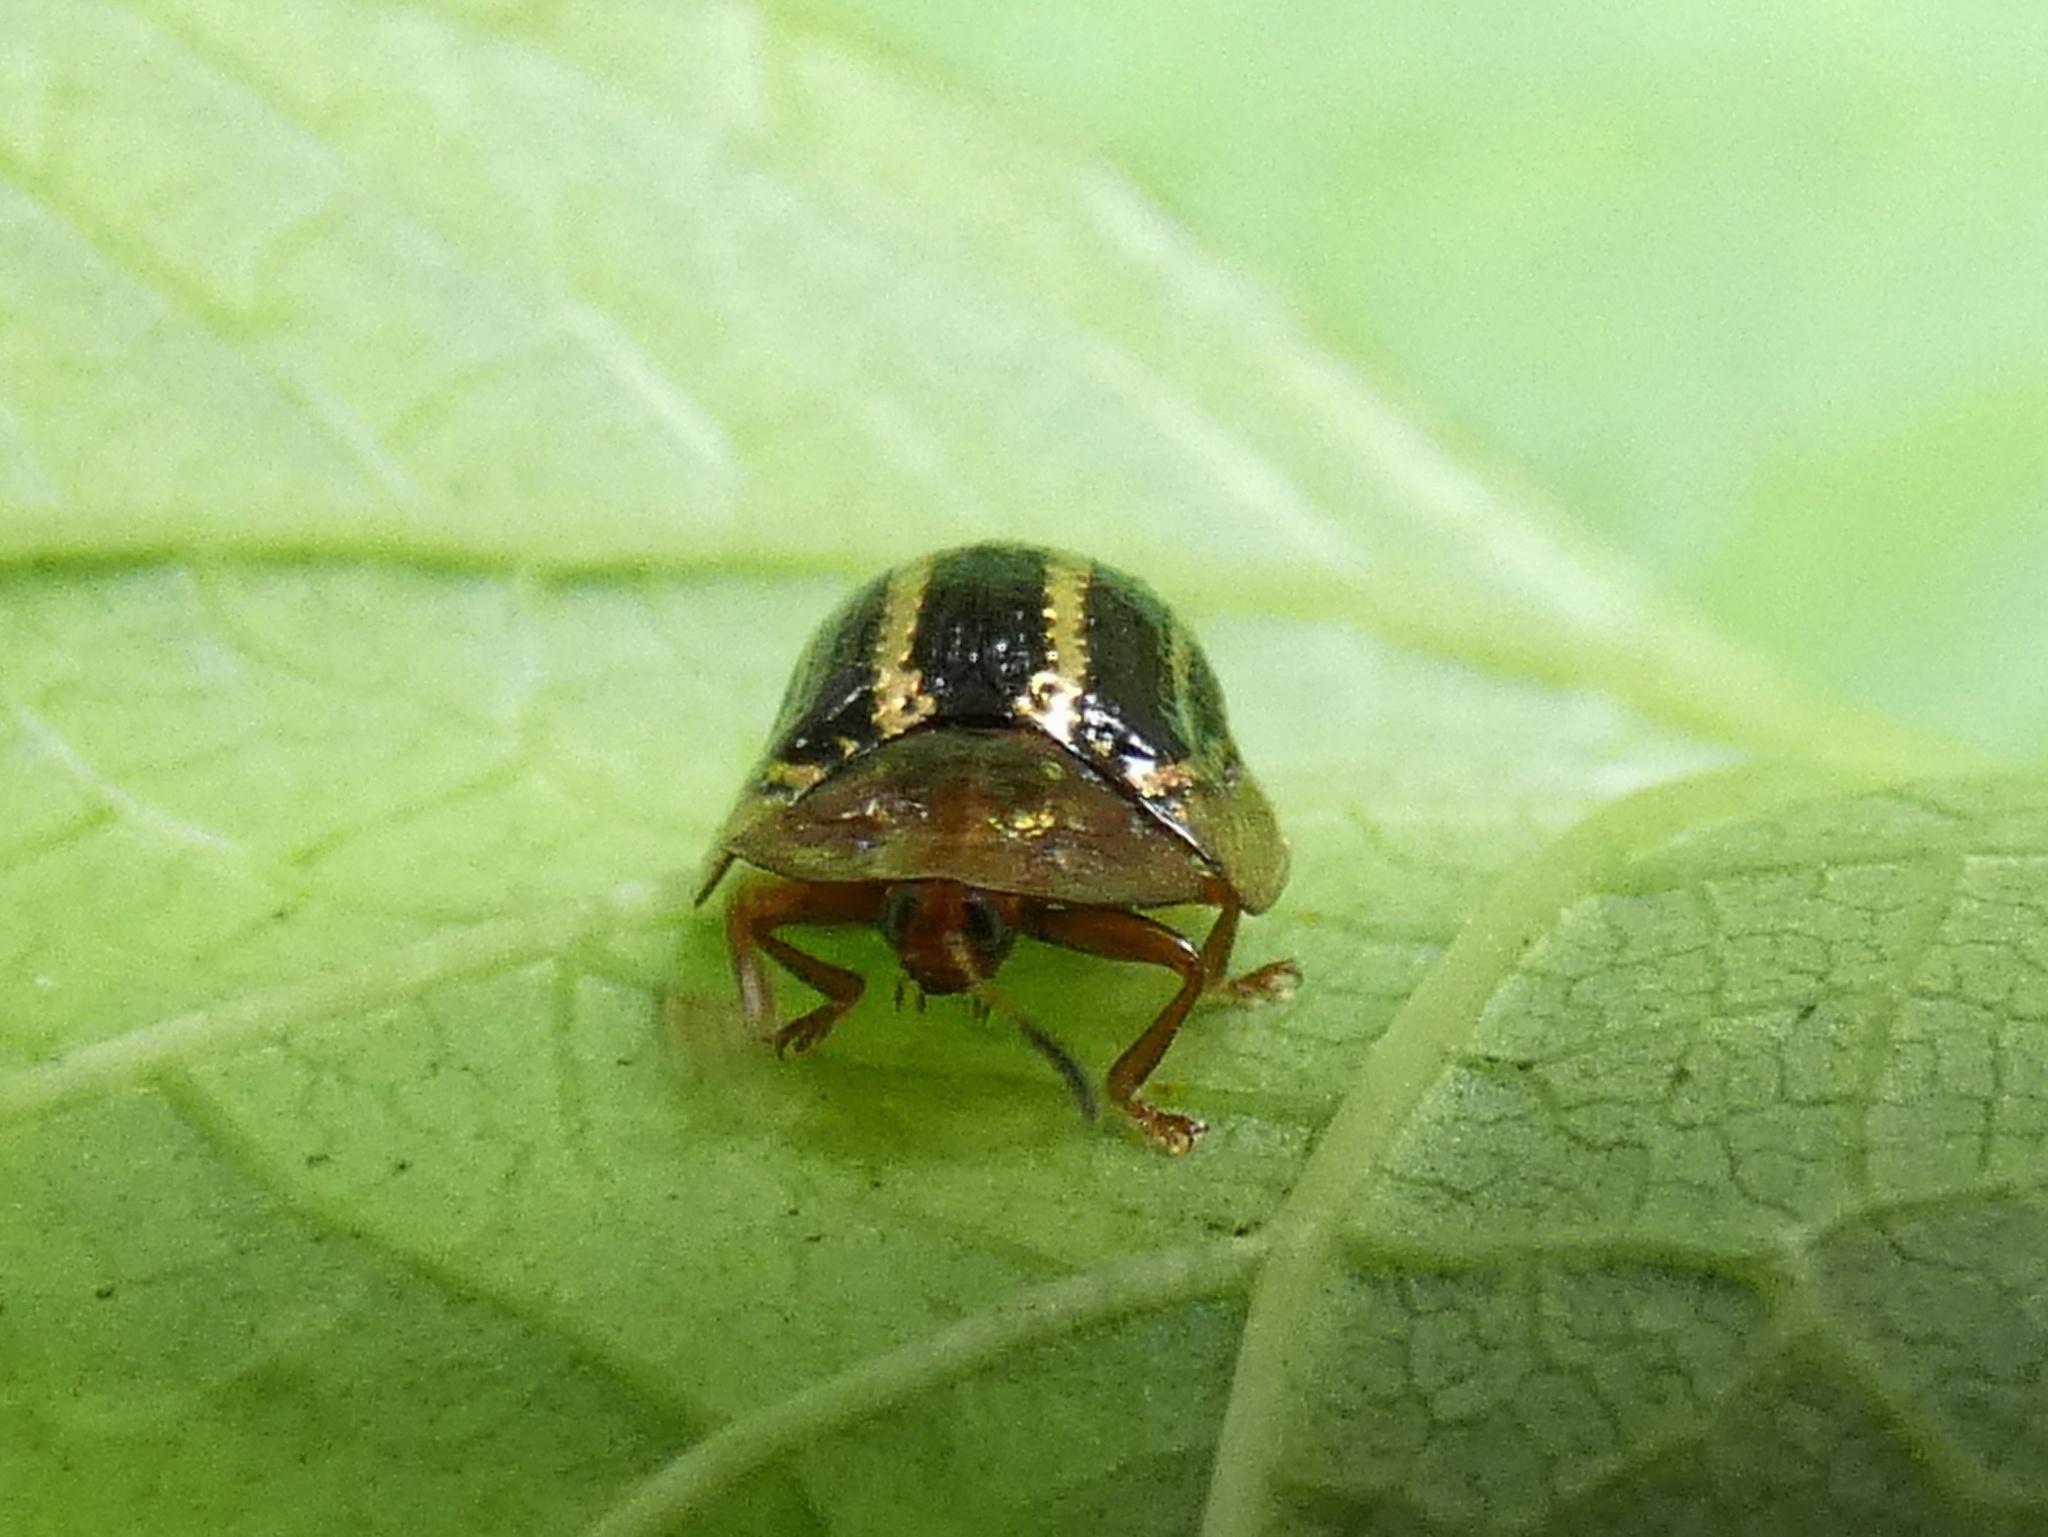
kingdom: Animalia
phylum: Arthropoda
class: Insecta
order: Coleoptera
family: Chrysomelidae
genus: Agroiconota
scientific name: Agroiconota propinqua
